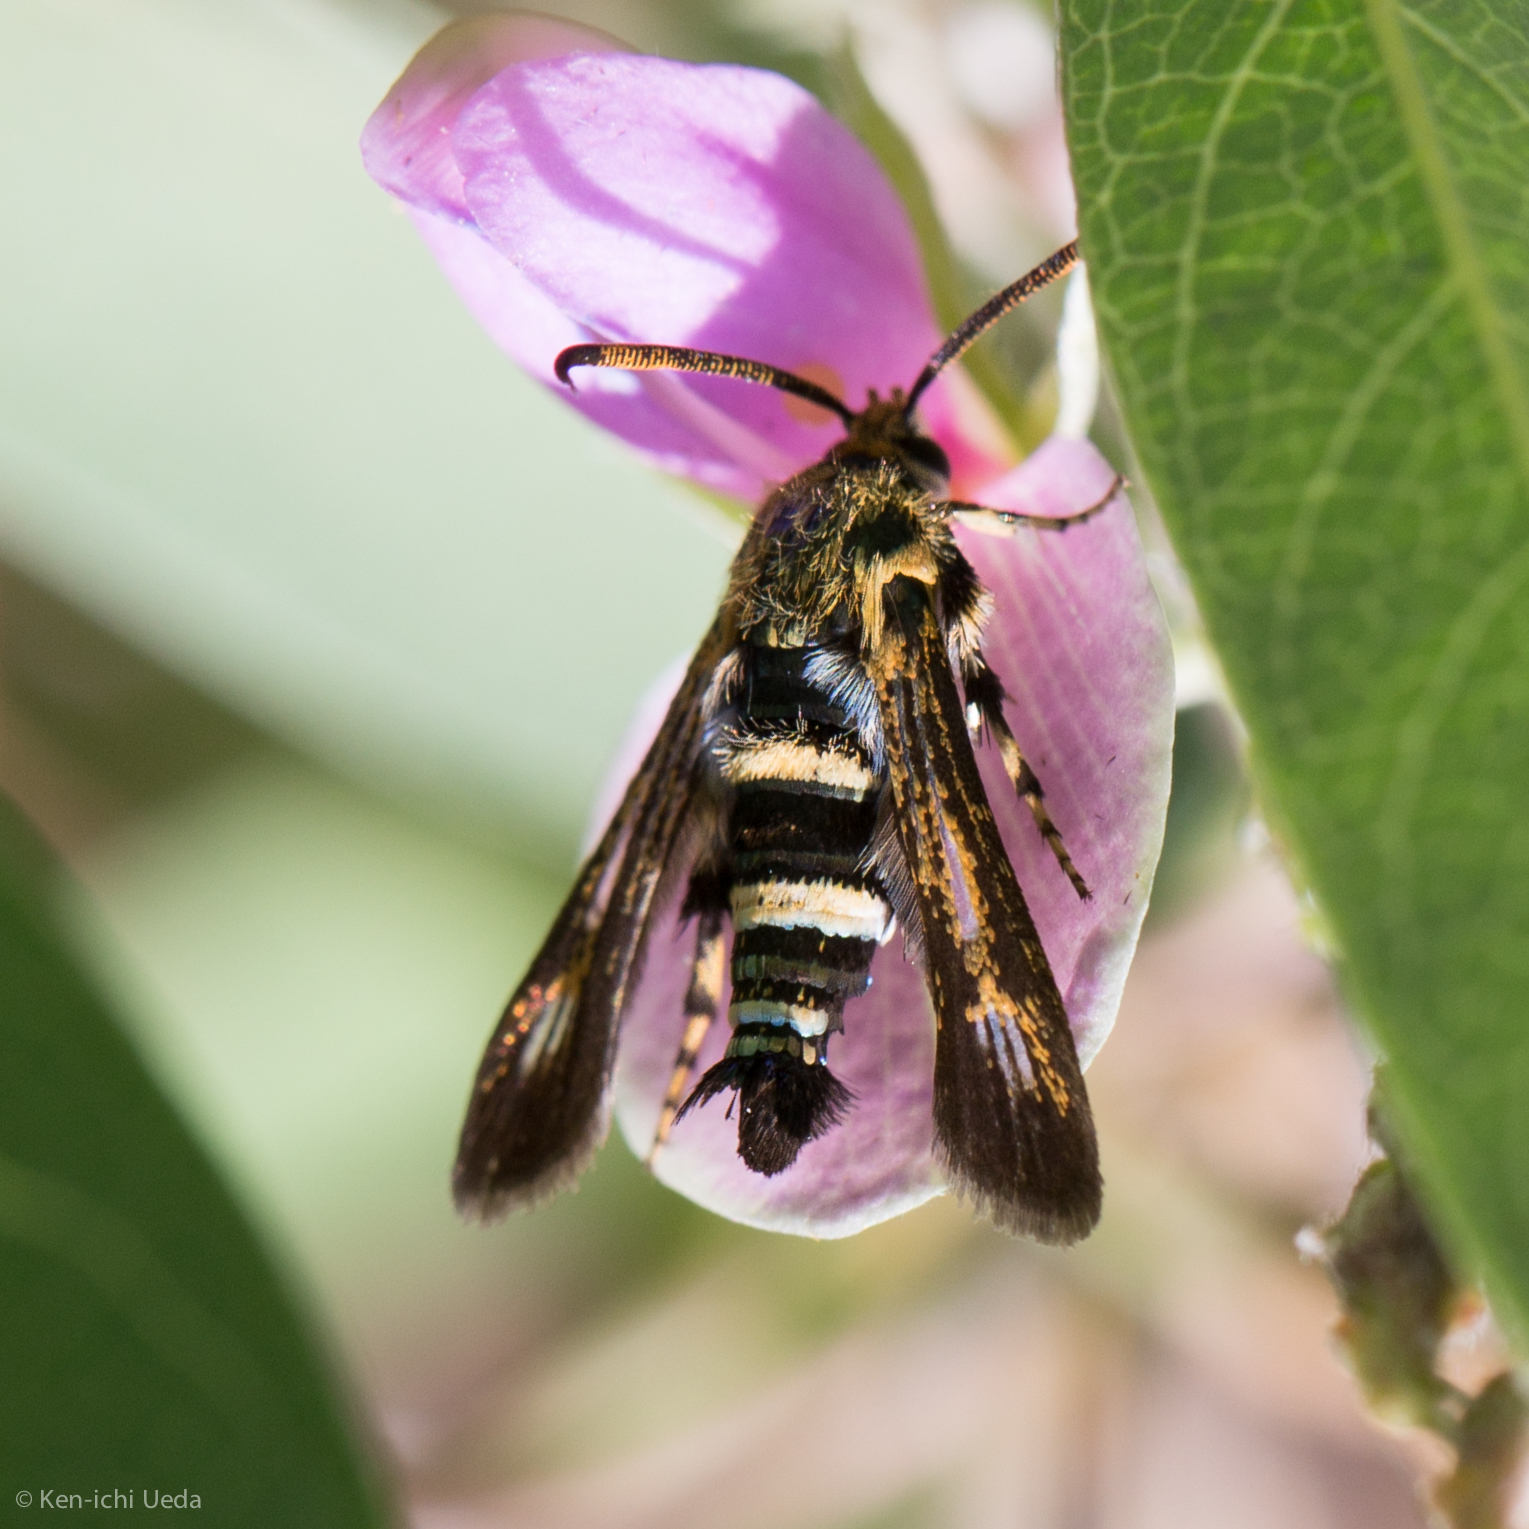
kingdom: Animalia
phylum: Arthropoda
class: Insecta
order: Lepidoptera
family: Sesiidae
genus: Osminia
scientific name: Osminia ruficornis
